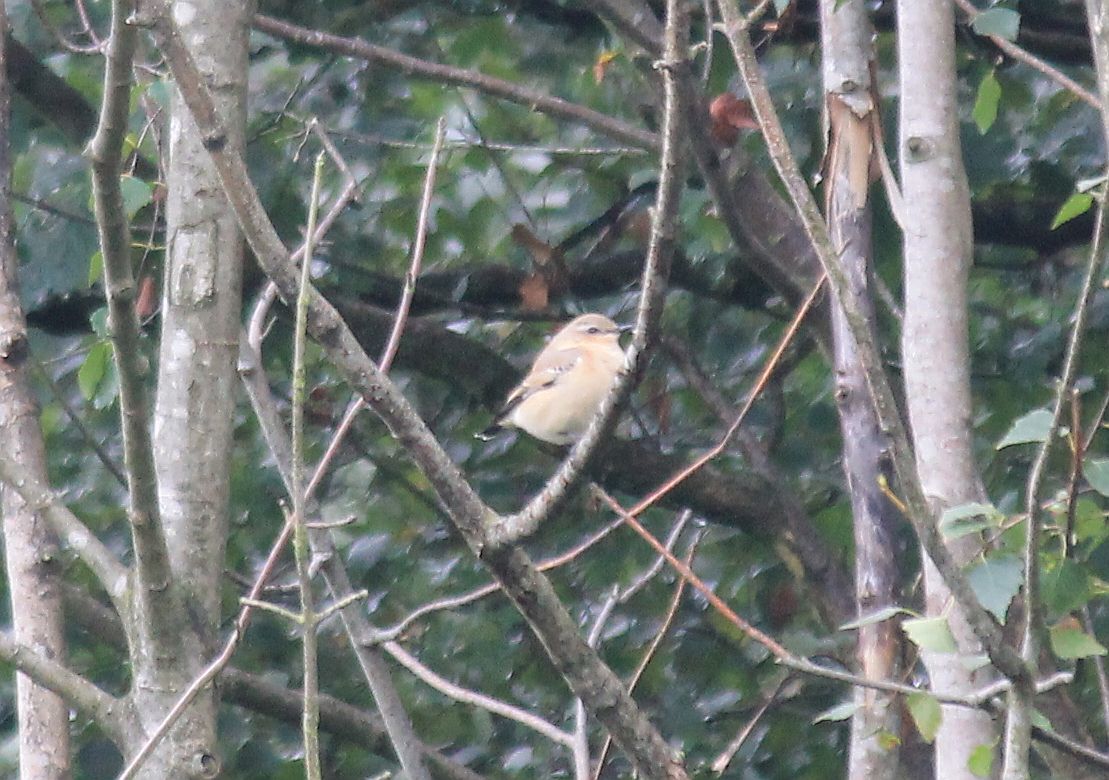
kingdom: Animalia
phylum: Chordata
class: Aves
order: Passeriformes
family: Muscicapidae
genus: Oenanthe
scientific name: Oenanthe oenanthe
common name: Northern wheatear
